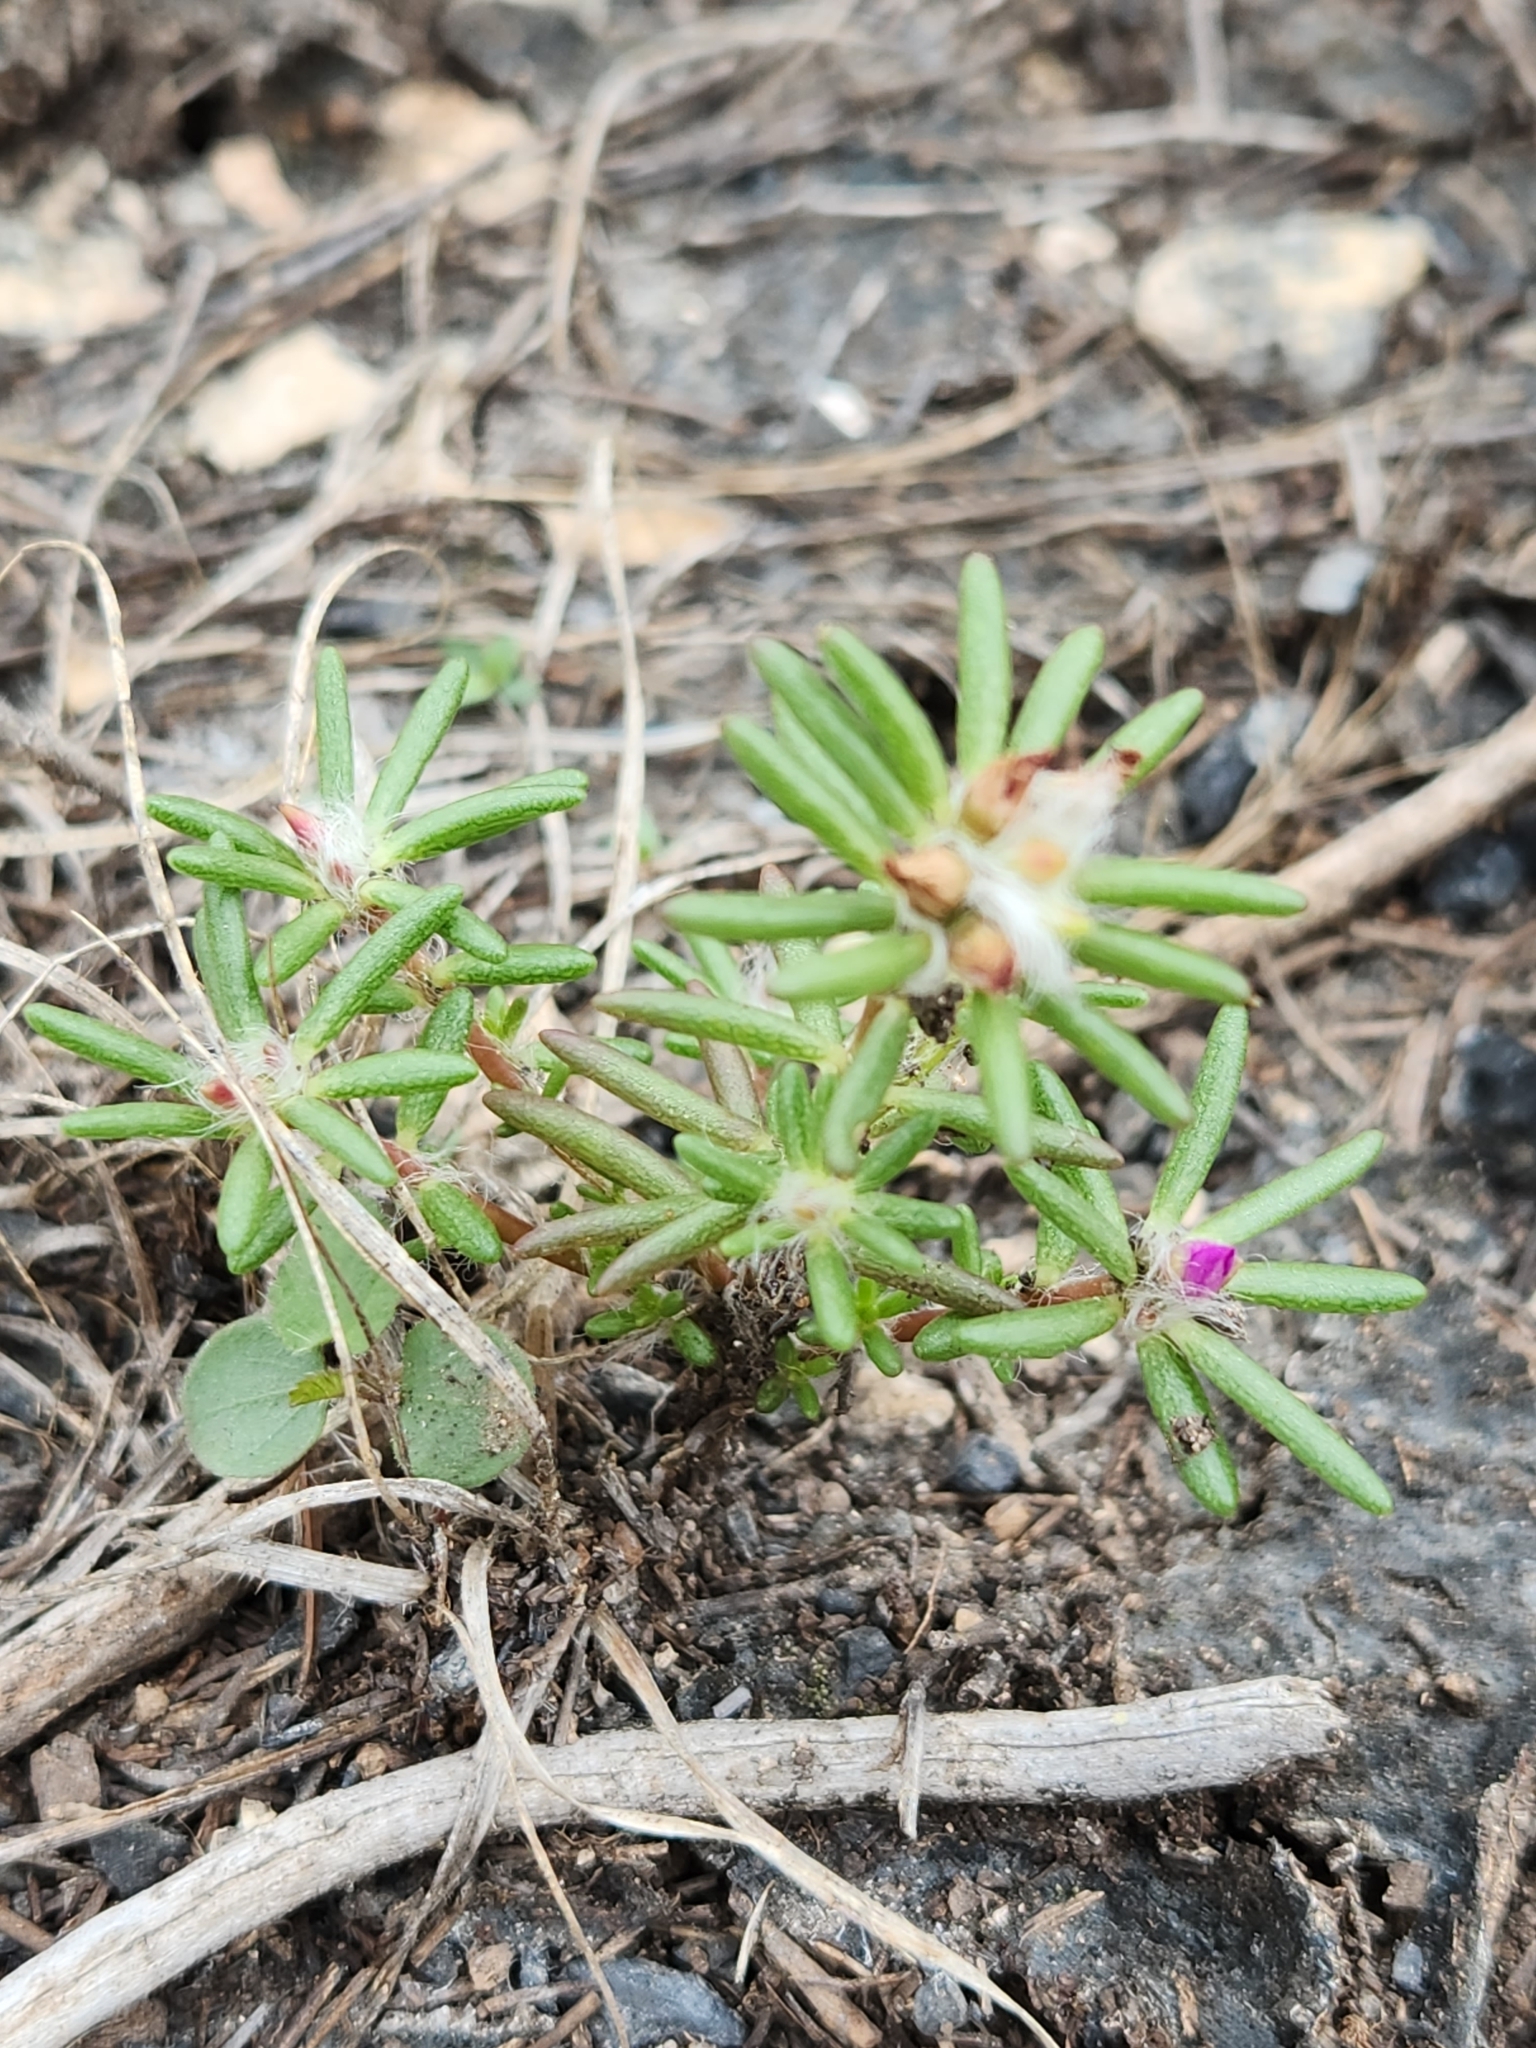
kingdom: Plantae
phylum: Tracheophyta
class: Magnoliopsida
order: Caryophyllales
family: Portulacaceae
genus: Portulaca
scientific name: Portulaca pilosa
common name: Kiss me quick
